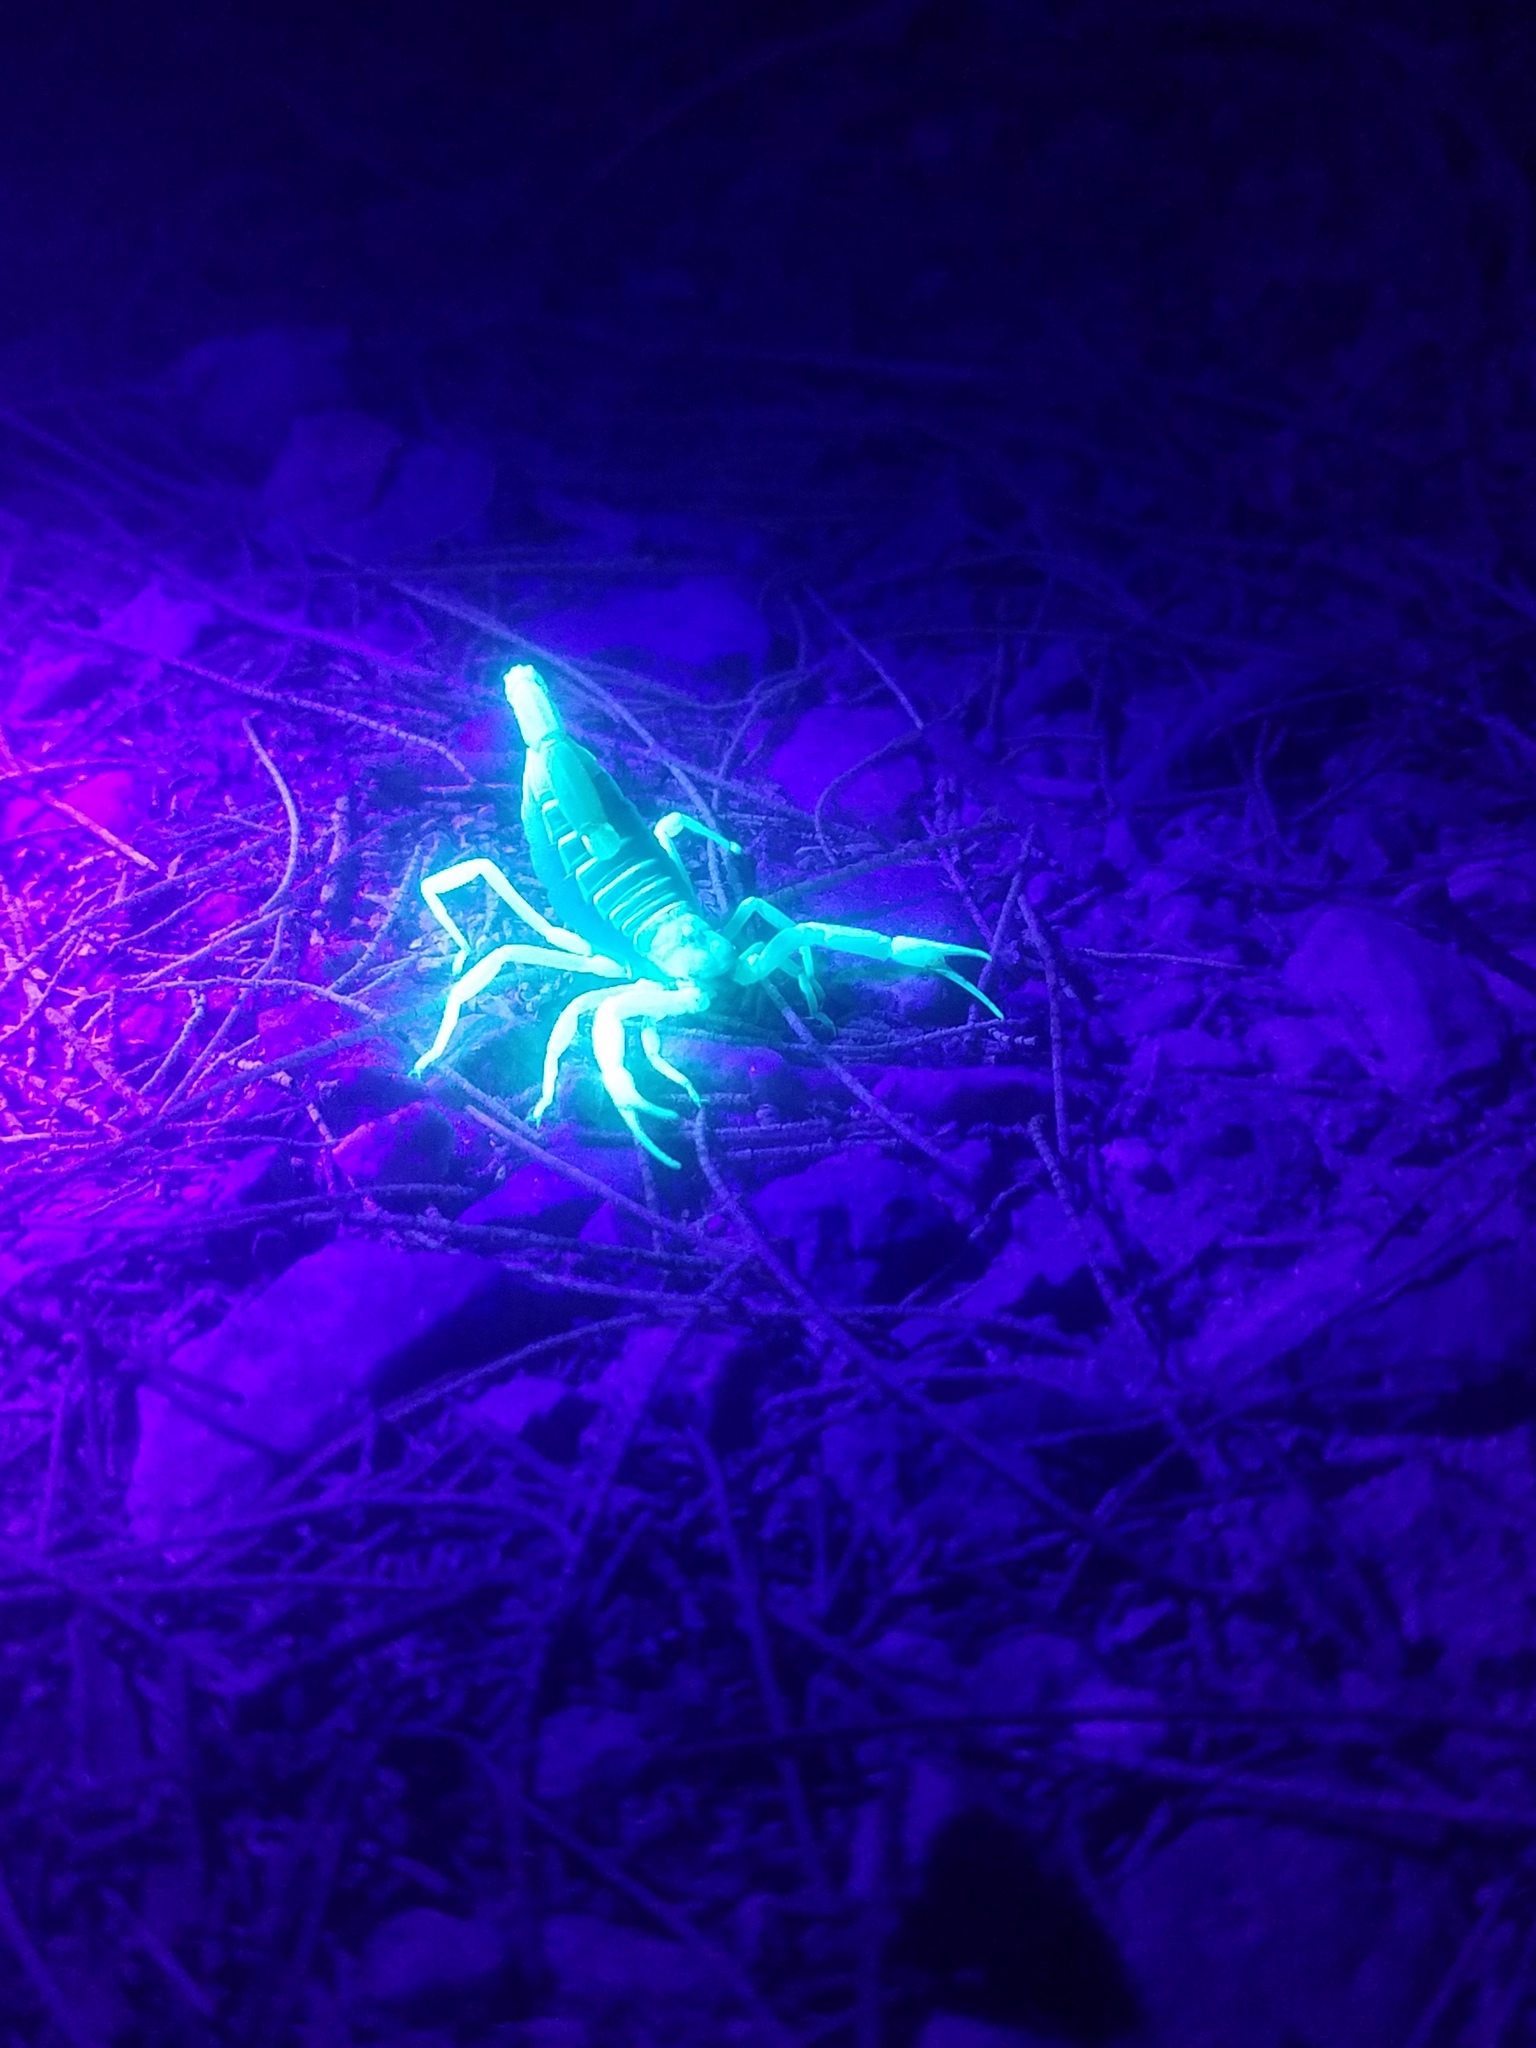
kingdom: Animalia
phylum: Arthropoda
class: Arachnida
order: Scorpiones
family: Hadruridae
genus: Hadrurus
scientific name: Hadrurus arizonensis
